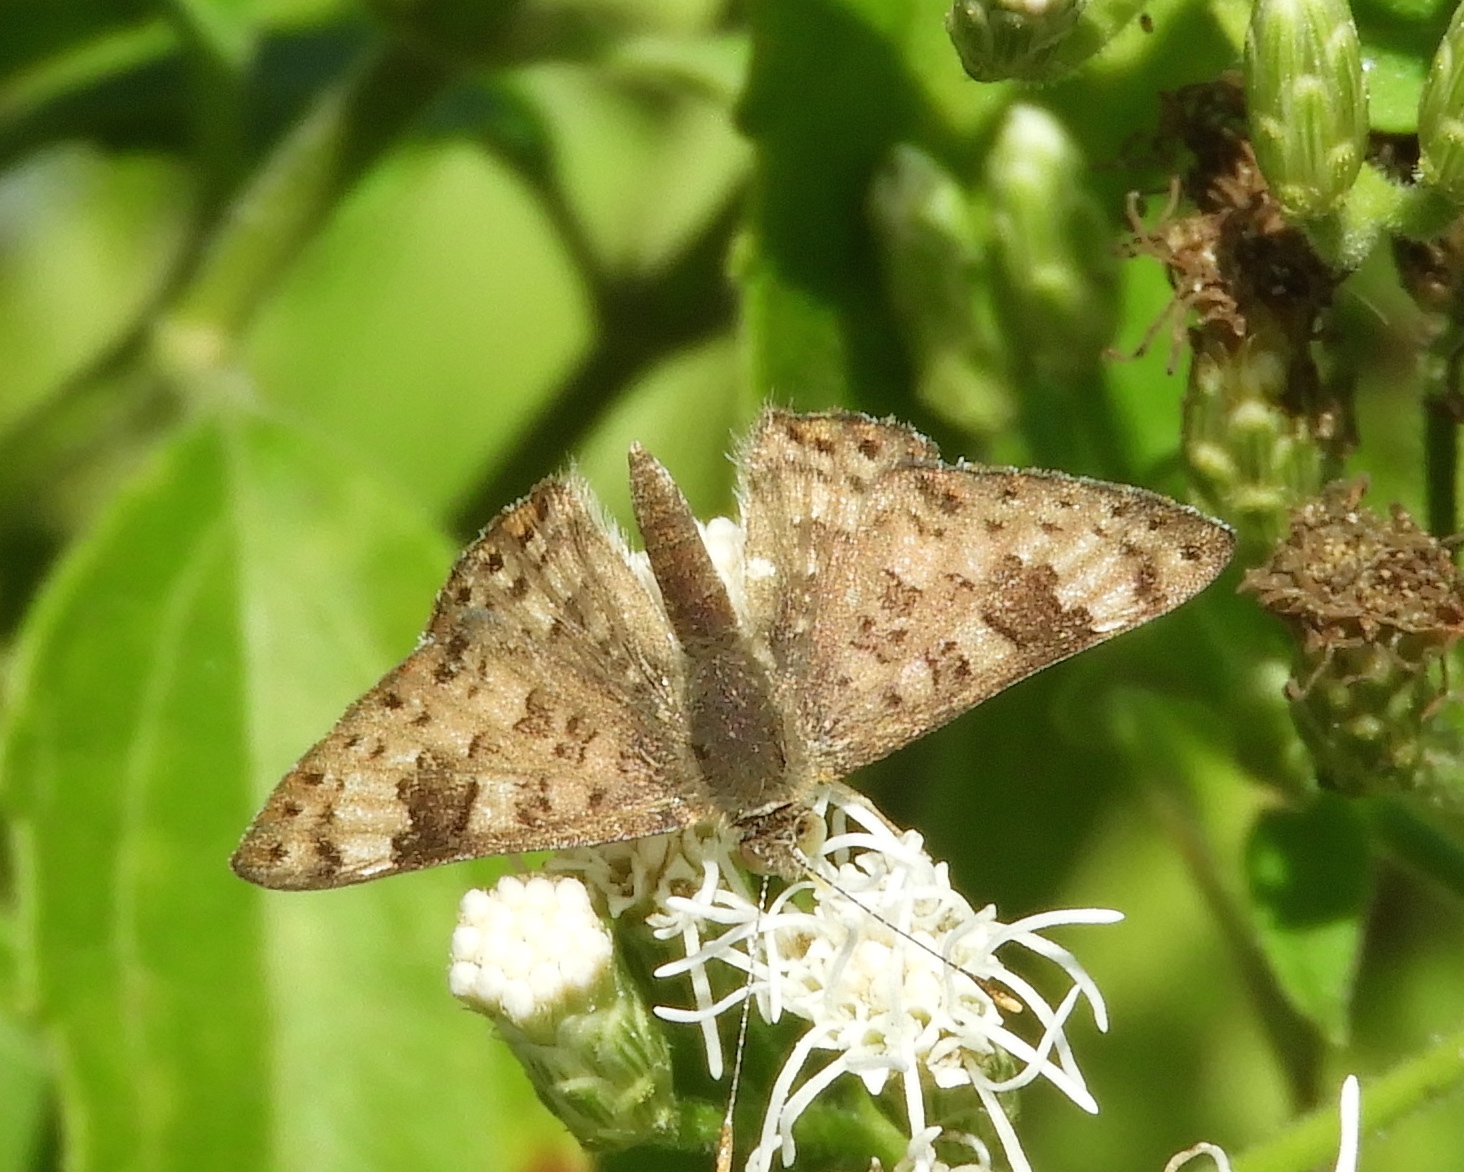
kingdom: Animalia
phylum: Arthropoda
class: Insecta
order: Lepidoptera
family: Riodinidae
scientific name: Riodinidae
